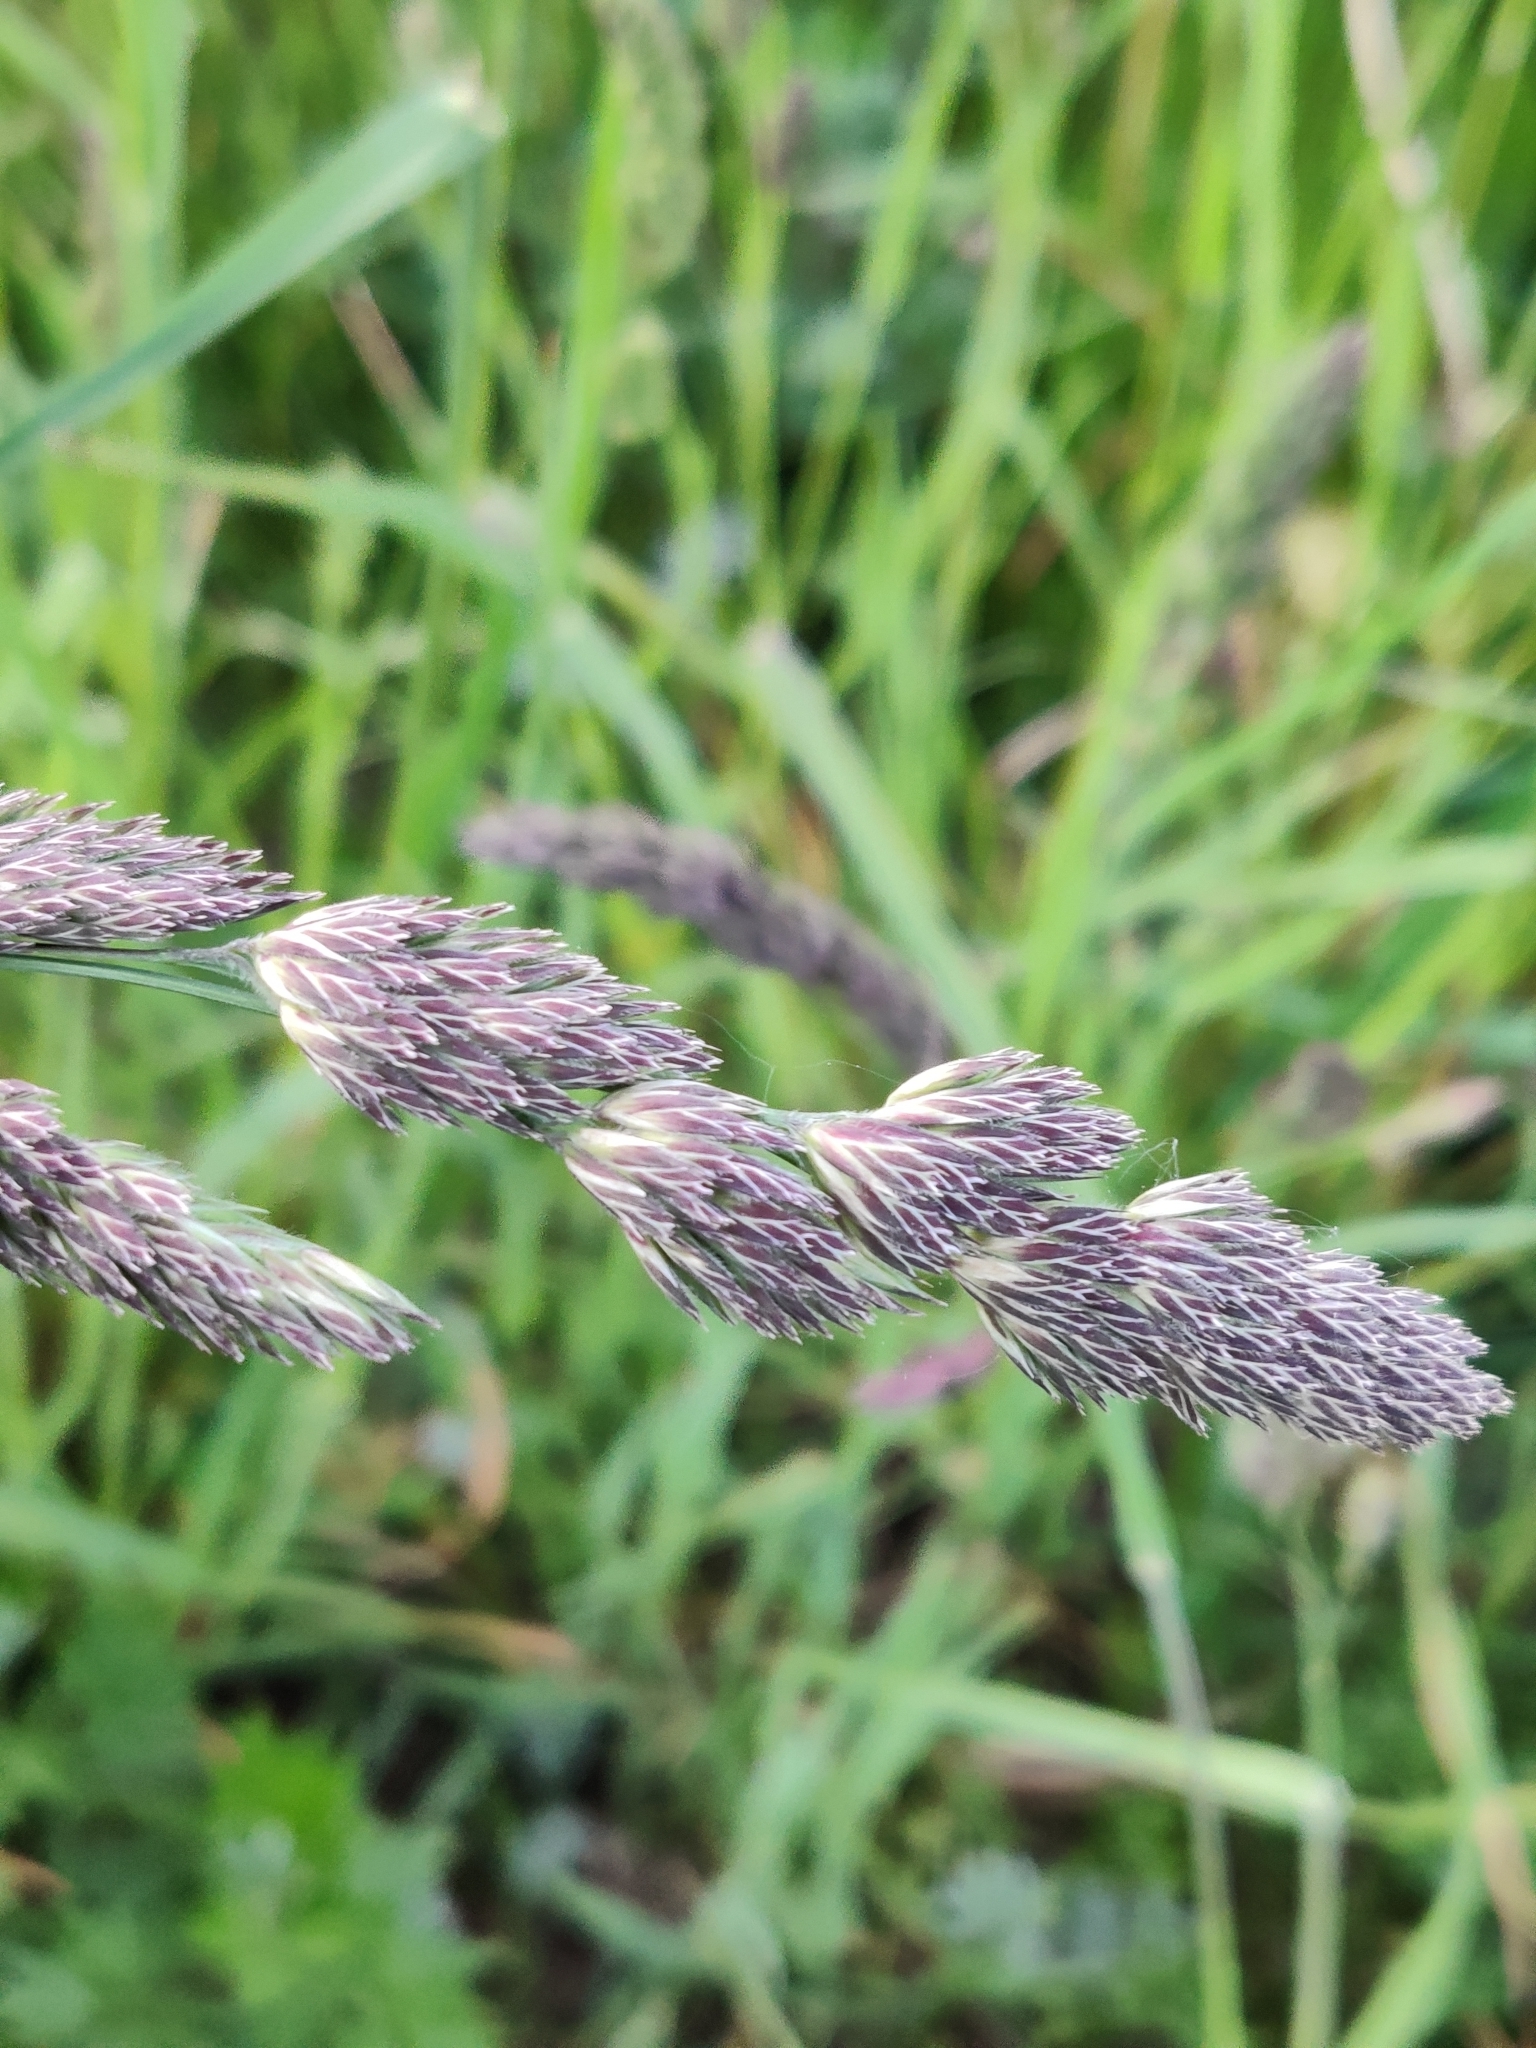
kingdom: Plantae
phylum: Tracheophyta
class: Liliopsida
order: Poales
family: Poaceae
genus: Dactylis
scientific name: Dactylis glomerata
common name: Orchardgrass
